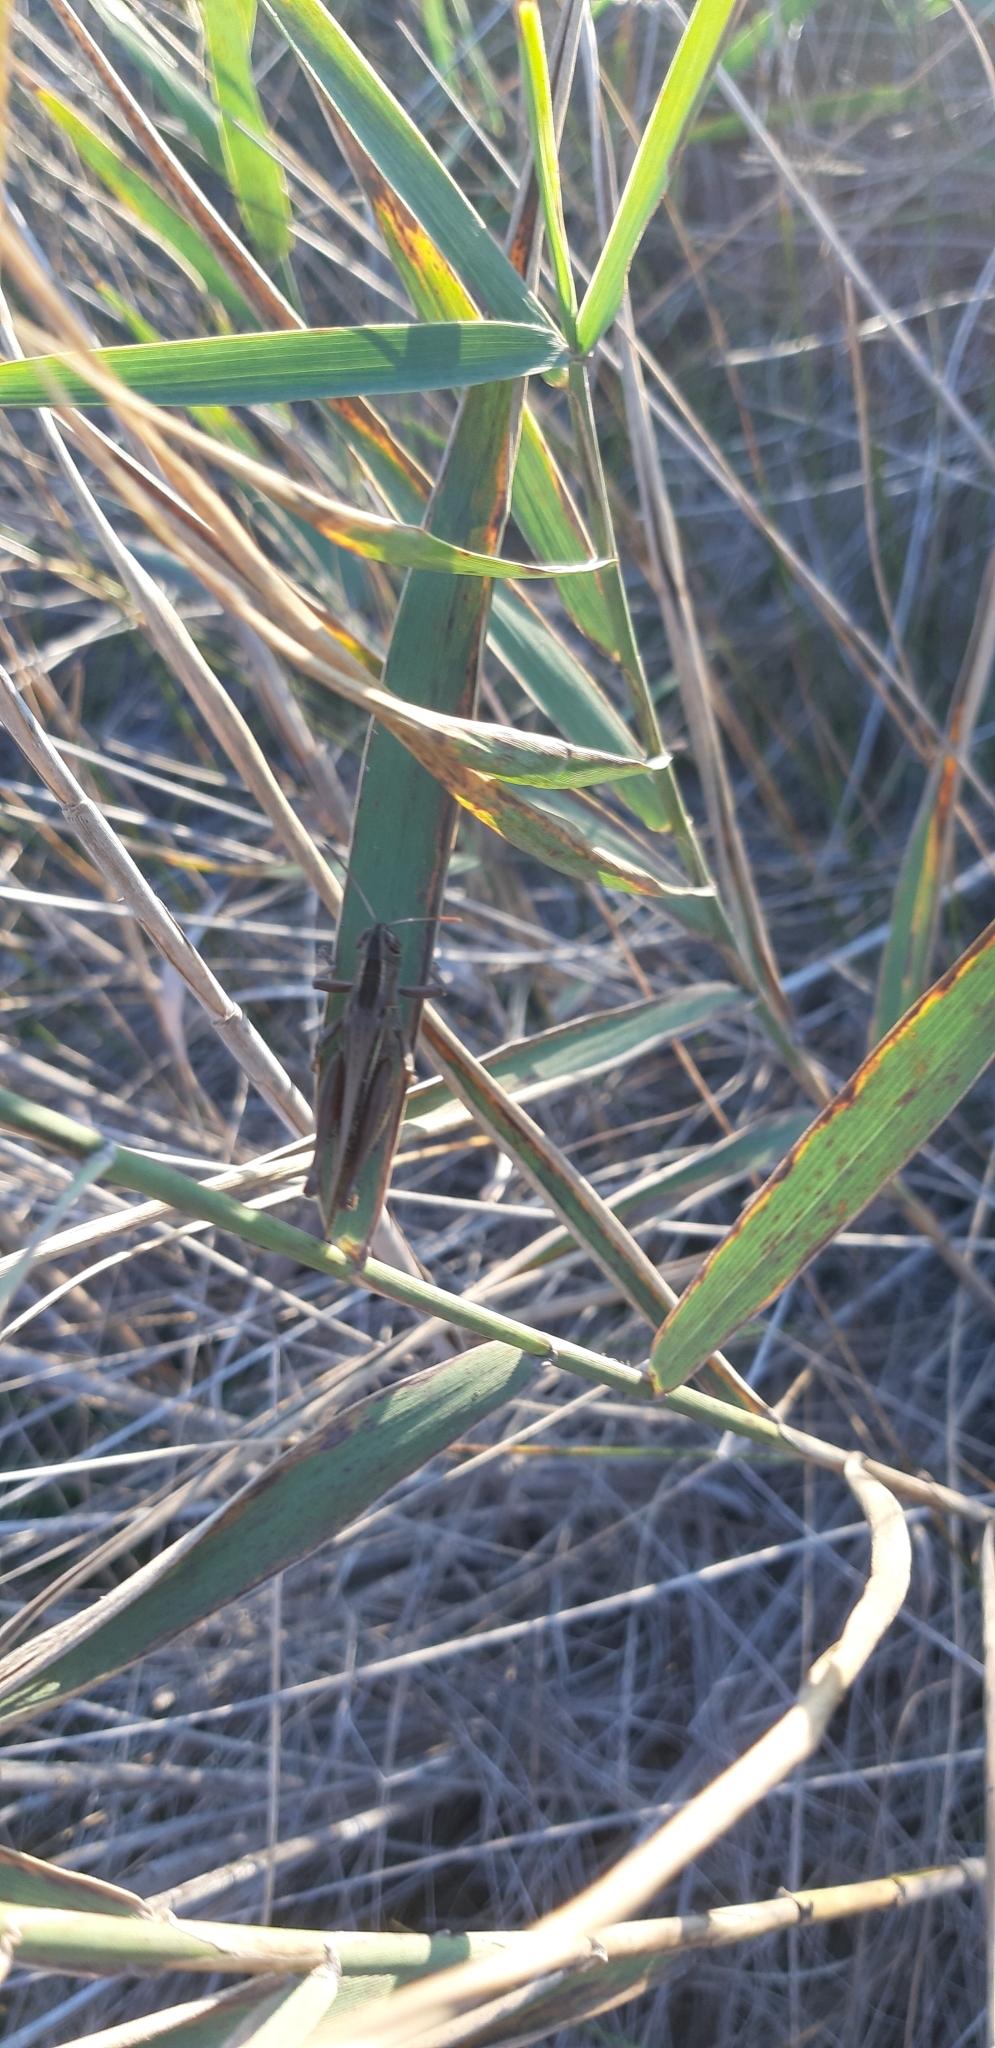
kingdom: Animalia
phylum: Arthropoda
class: Insecta
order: Orthoptera
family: Acrididae
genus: Eyprepocnemis
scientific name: Eyprepocnemis plorans
